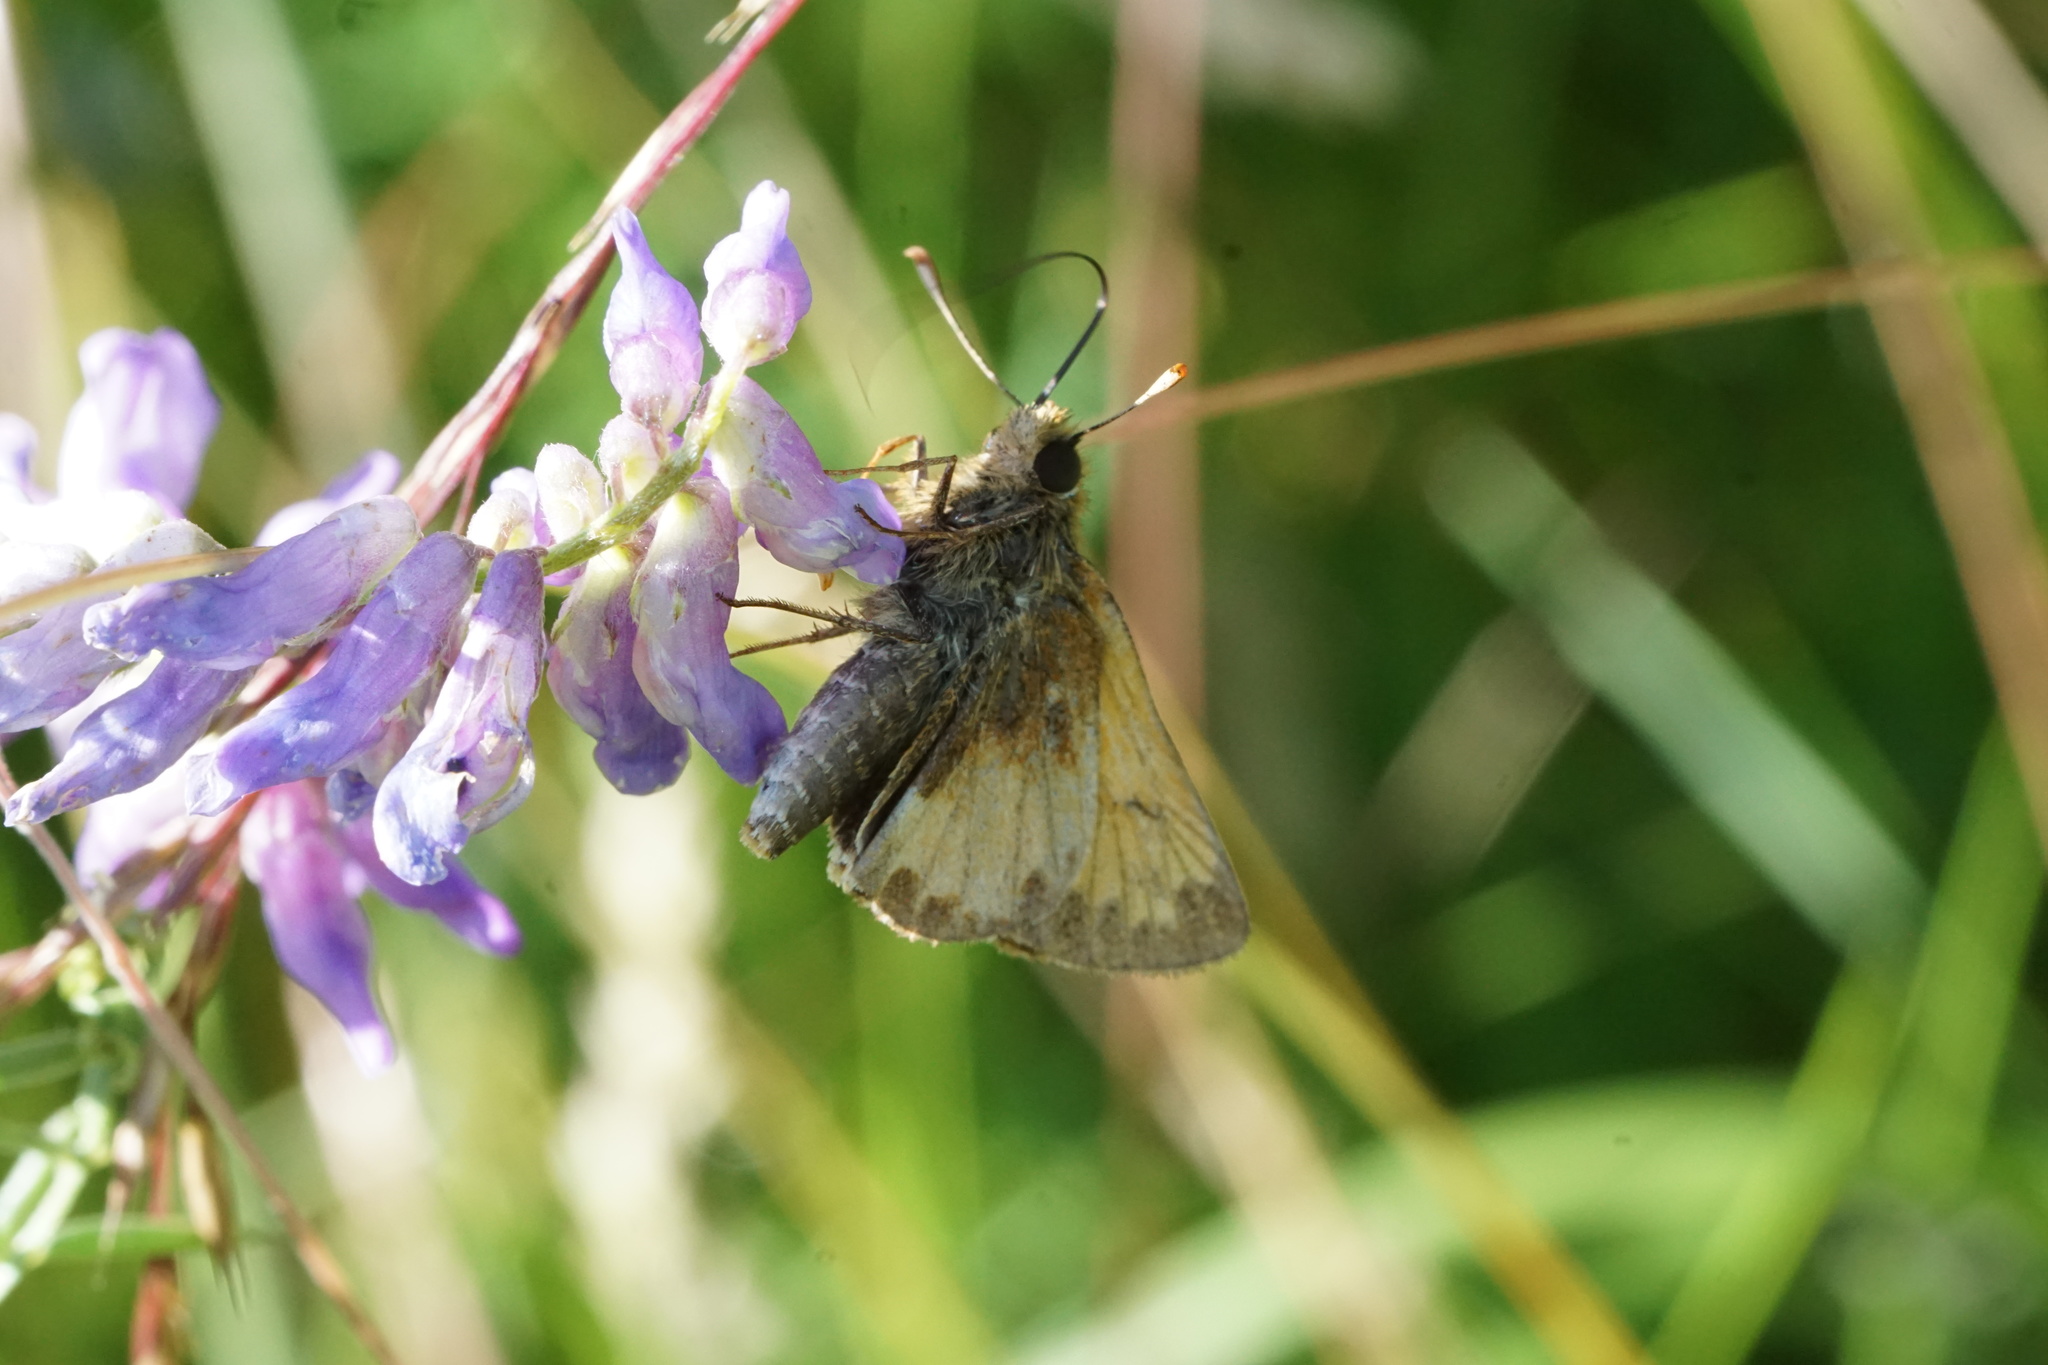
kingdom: Animalia
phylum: Arthropoda
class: Insecta
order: Lepidoptera
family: Hesperiidae
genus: Lon
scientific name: Lon hobomok
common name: Hobomok skipper
